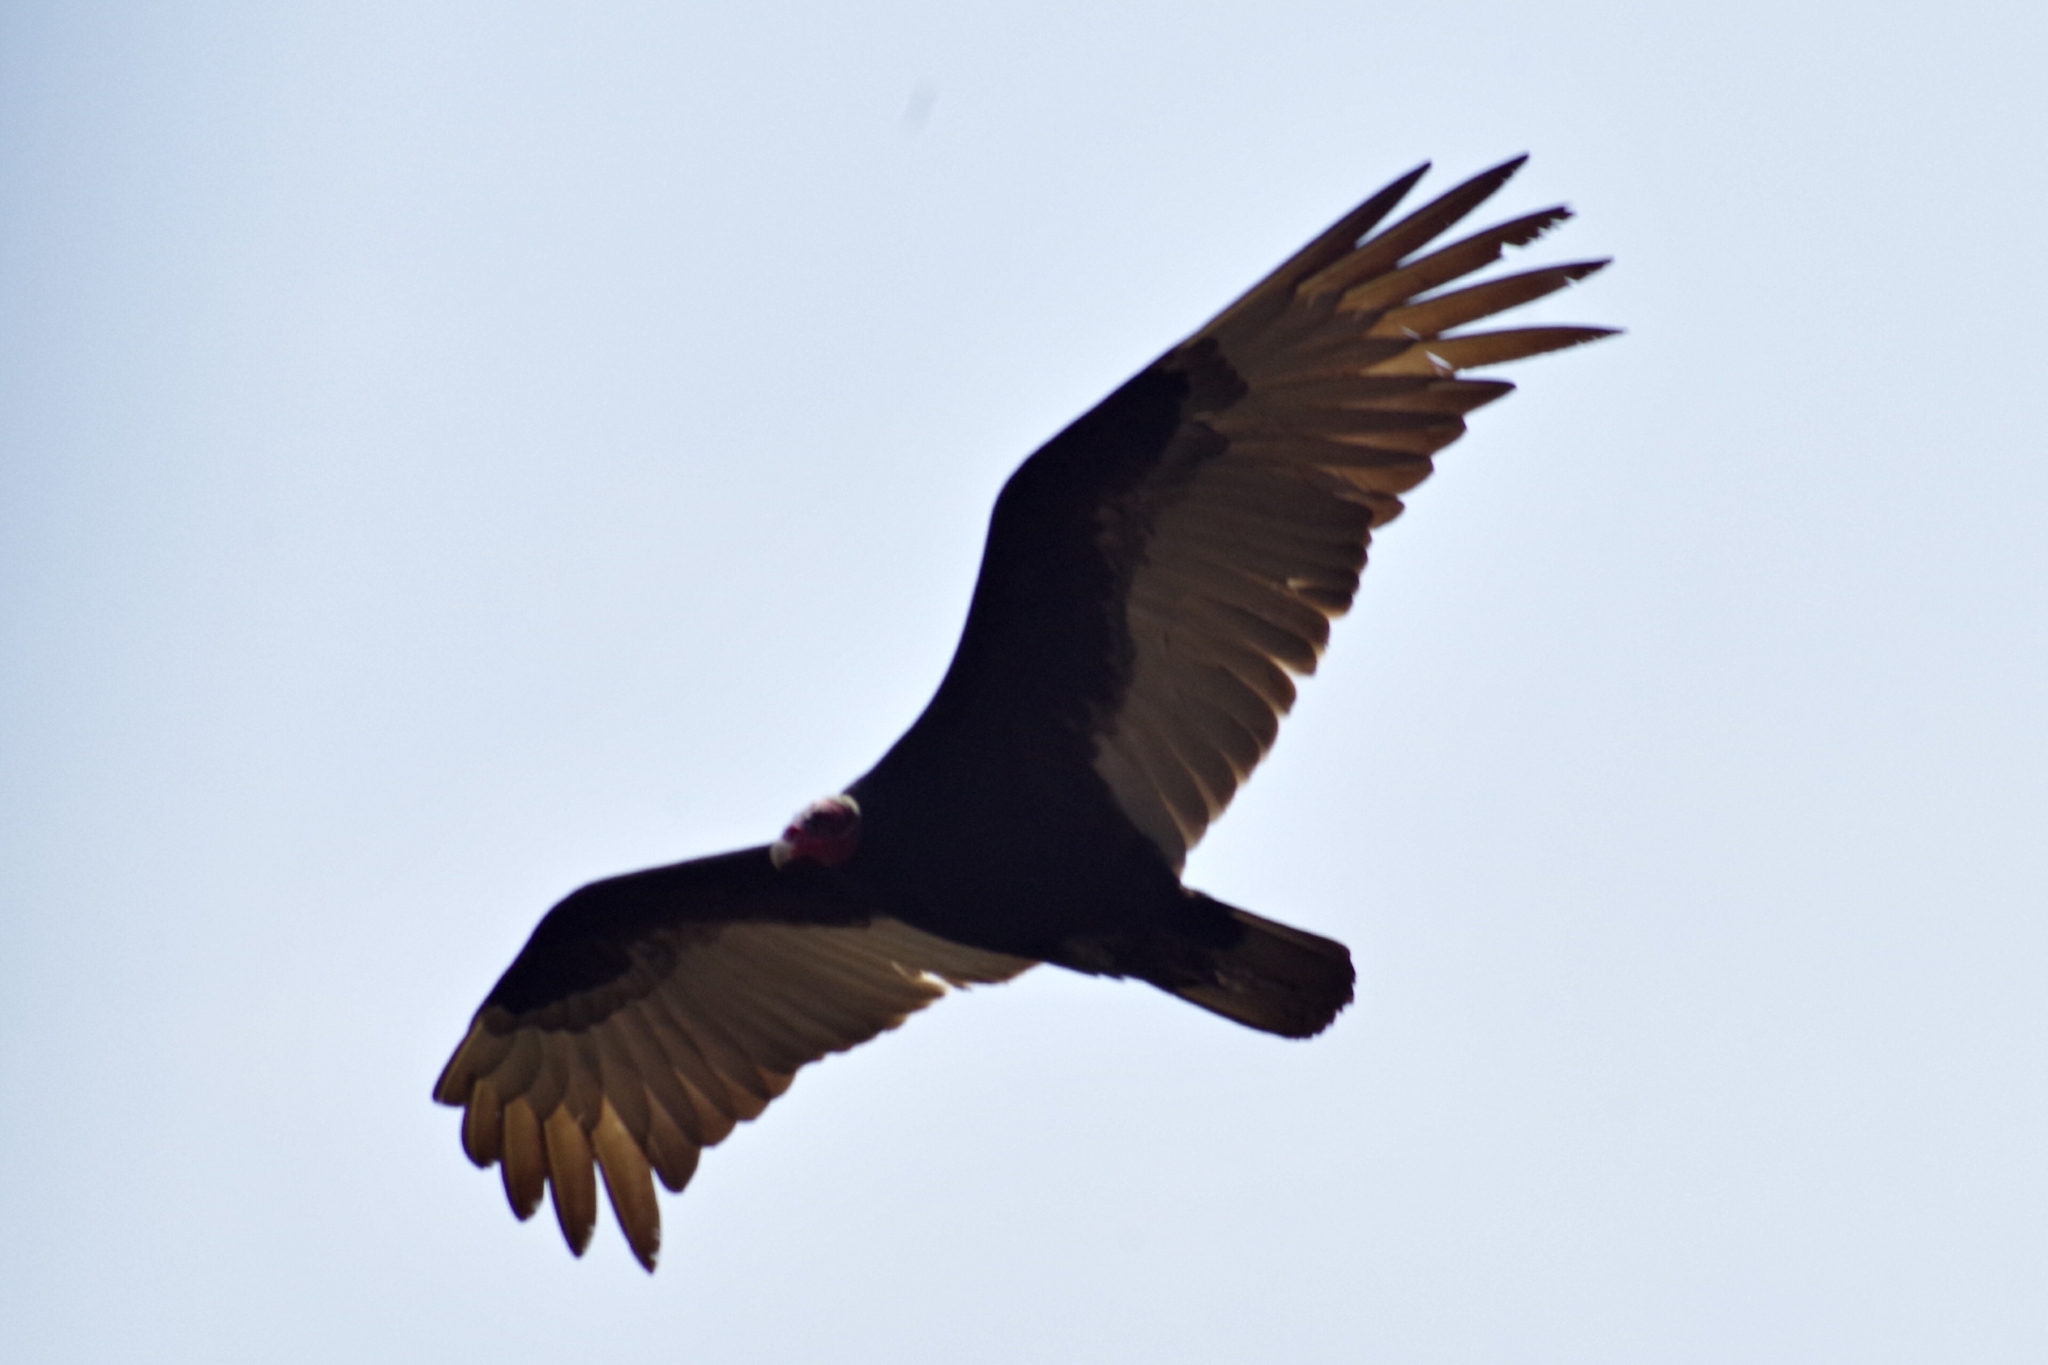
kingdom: Animalia
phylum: Chordata
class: Aves
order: Accipitriformes
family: Cathartidae
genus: Cathartes
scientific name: Cathartes aura
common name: Turkey vulture
